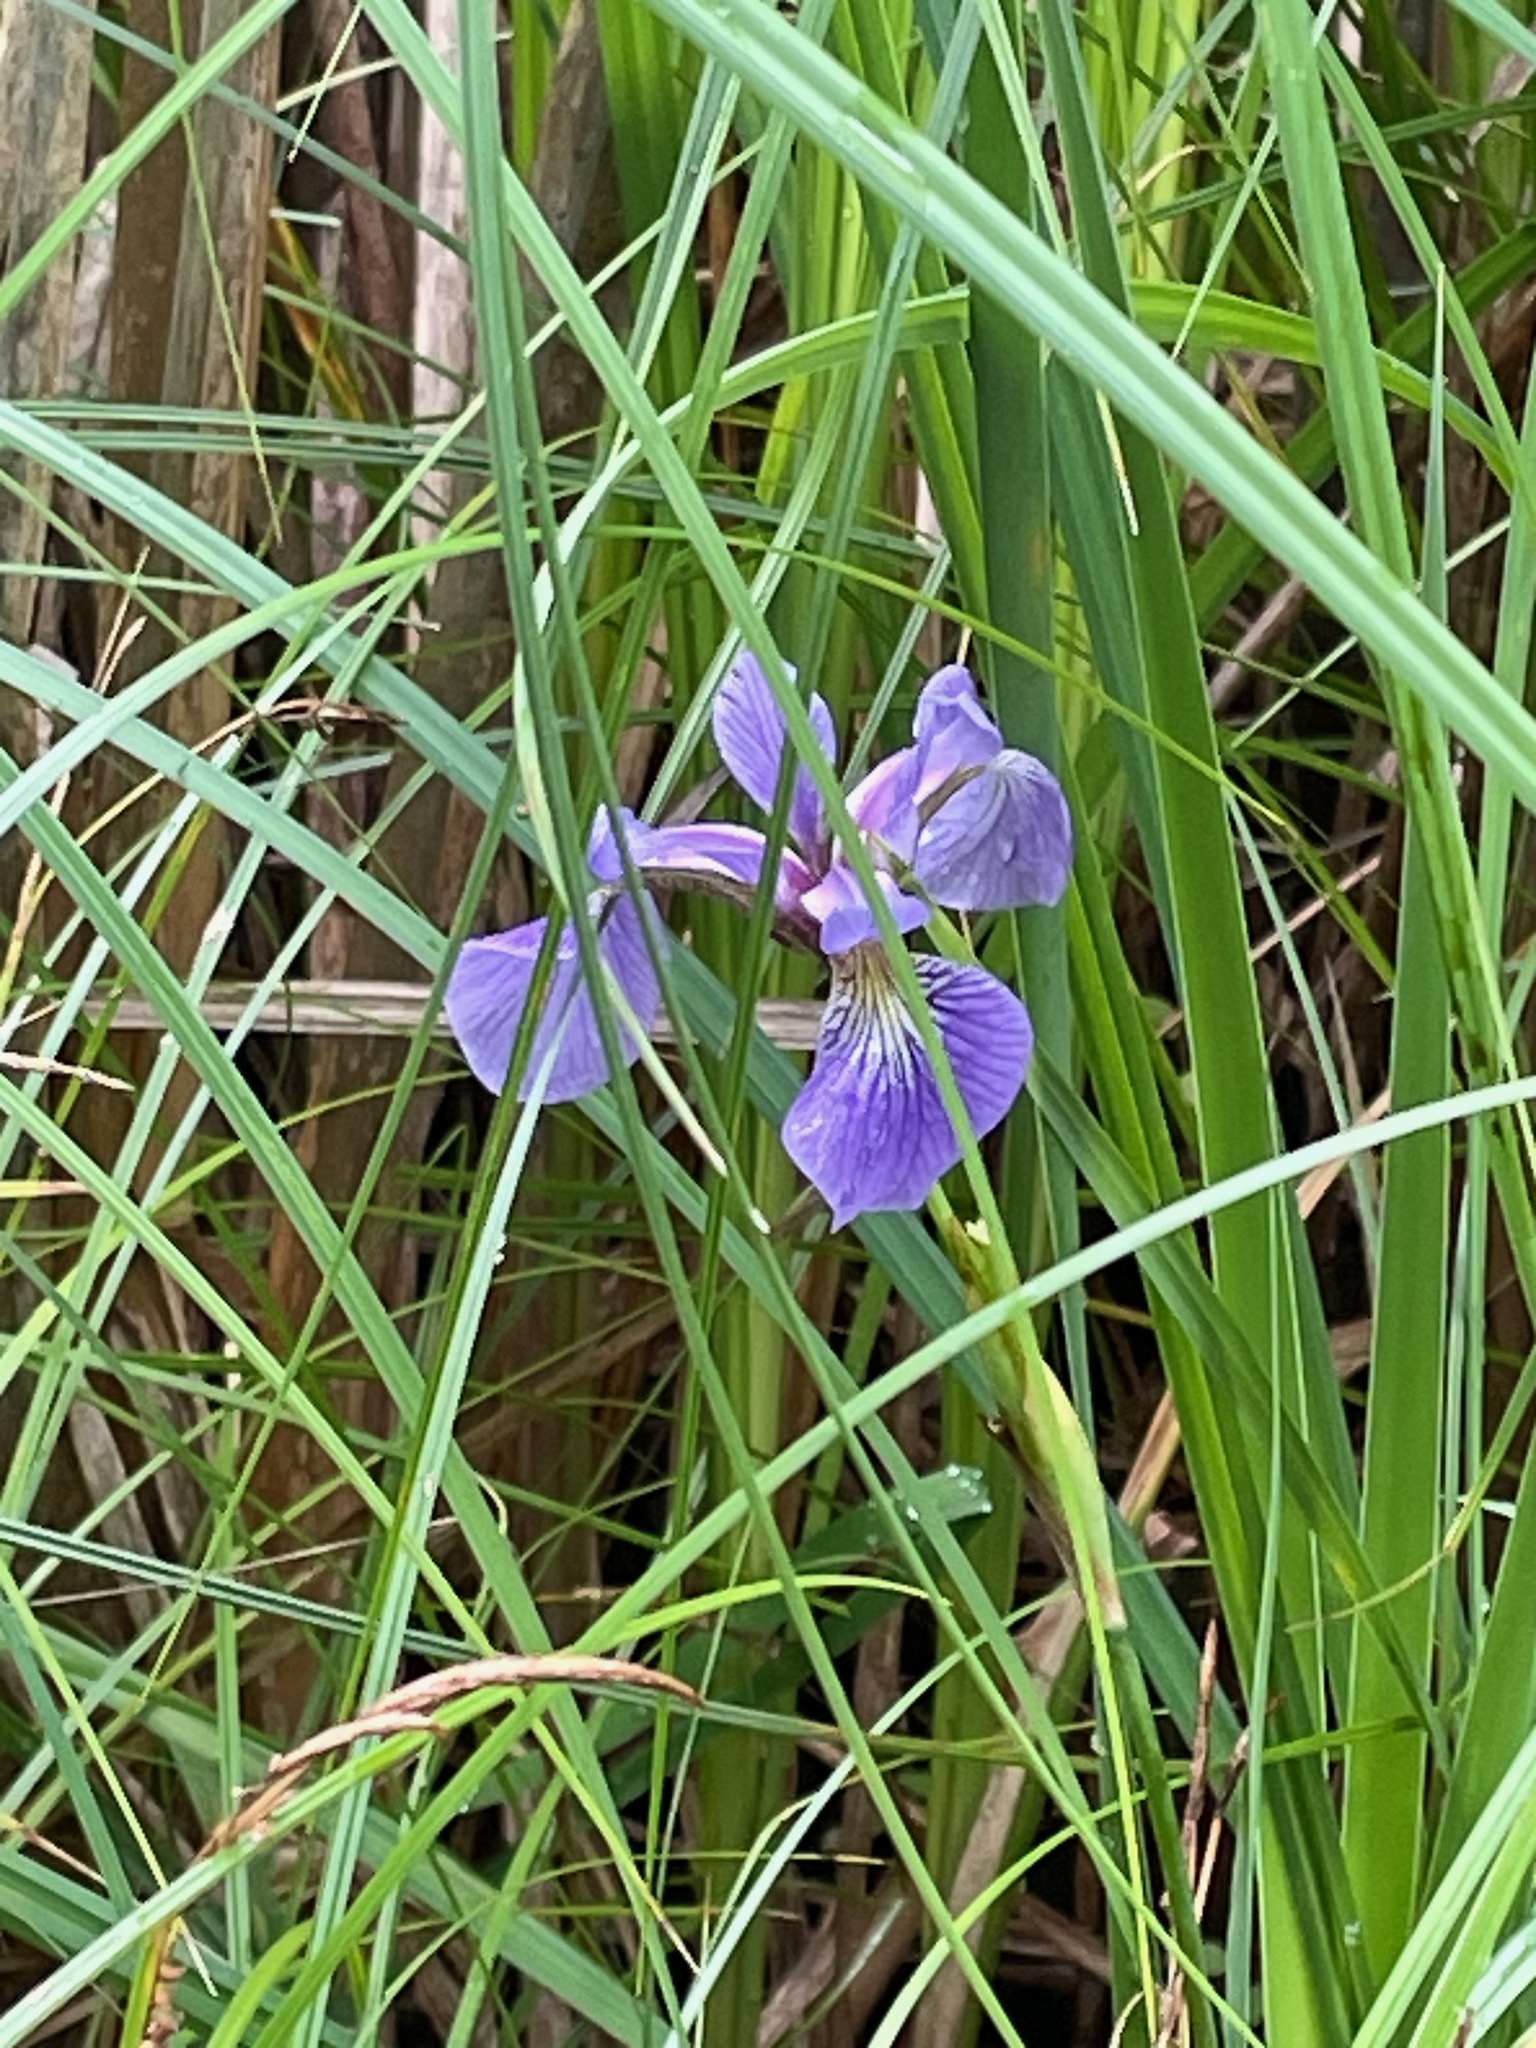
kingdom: Plantae
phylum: Tracheophyta
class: Liliopsida
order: Asparagales
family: Iridaceae
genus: Iris
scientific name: Iris versicolor
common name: Purple iris
